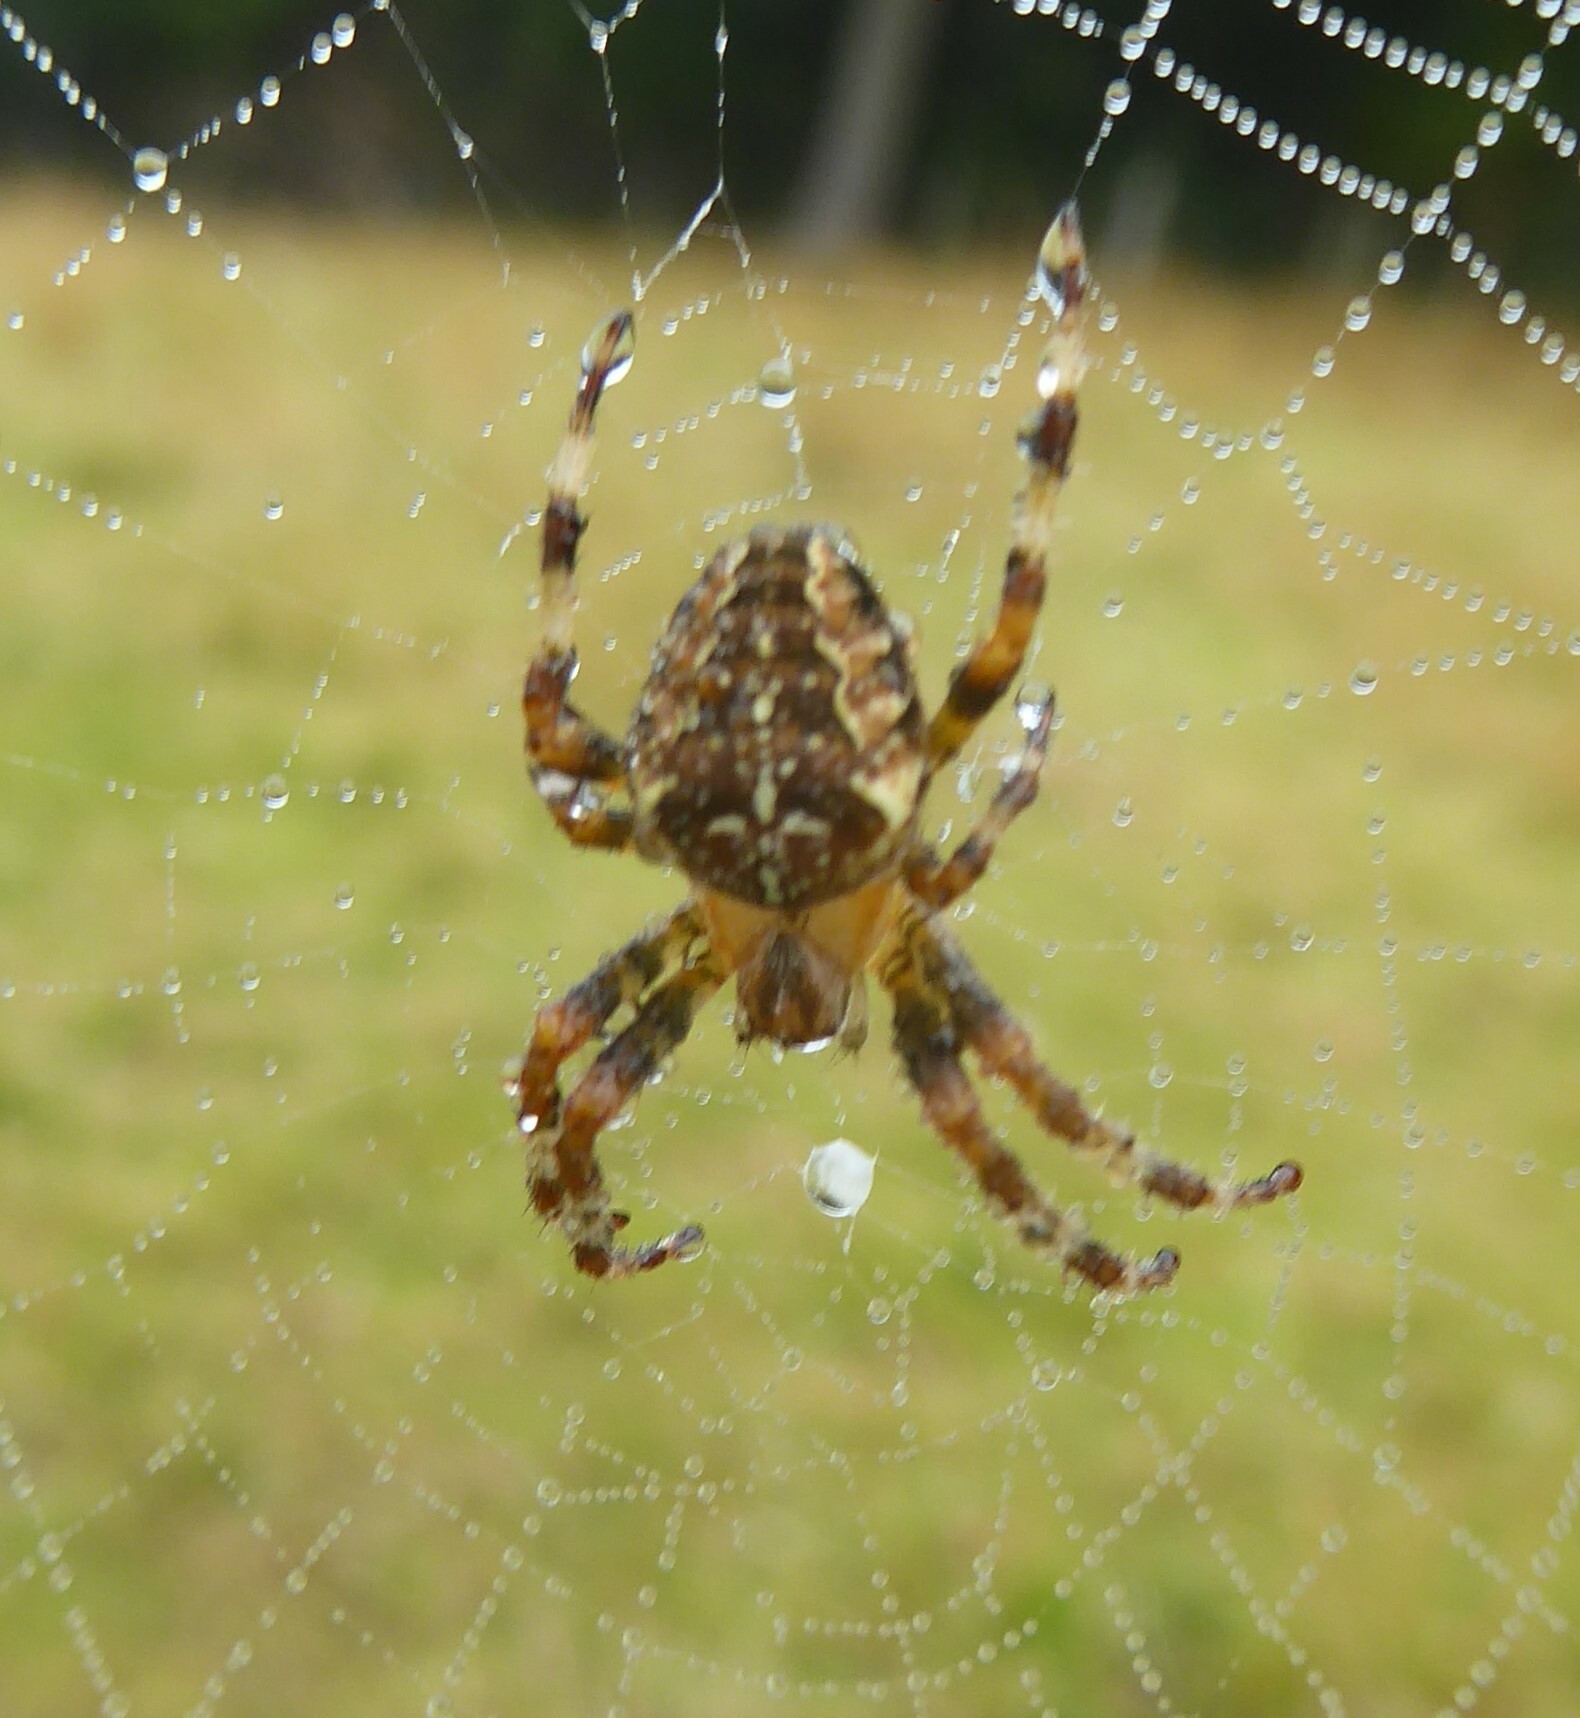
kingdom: Animalia
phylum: Arthropoda
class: Arachnida
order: Araneae
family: Araneidae
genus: Araneus
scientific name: Araneus diadematus
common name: Cross orbweaver
